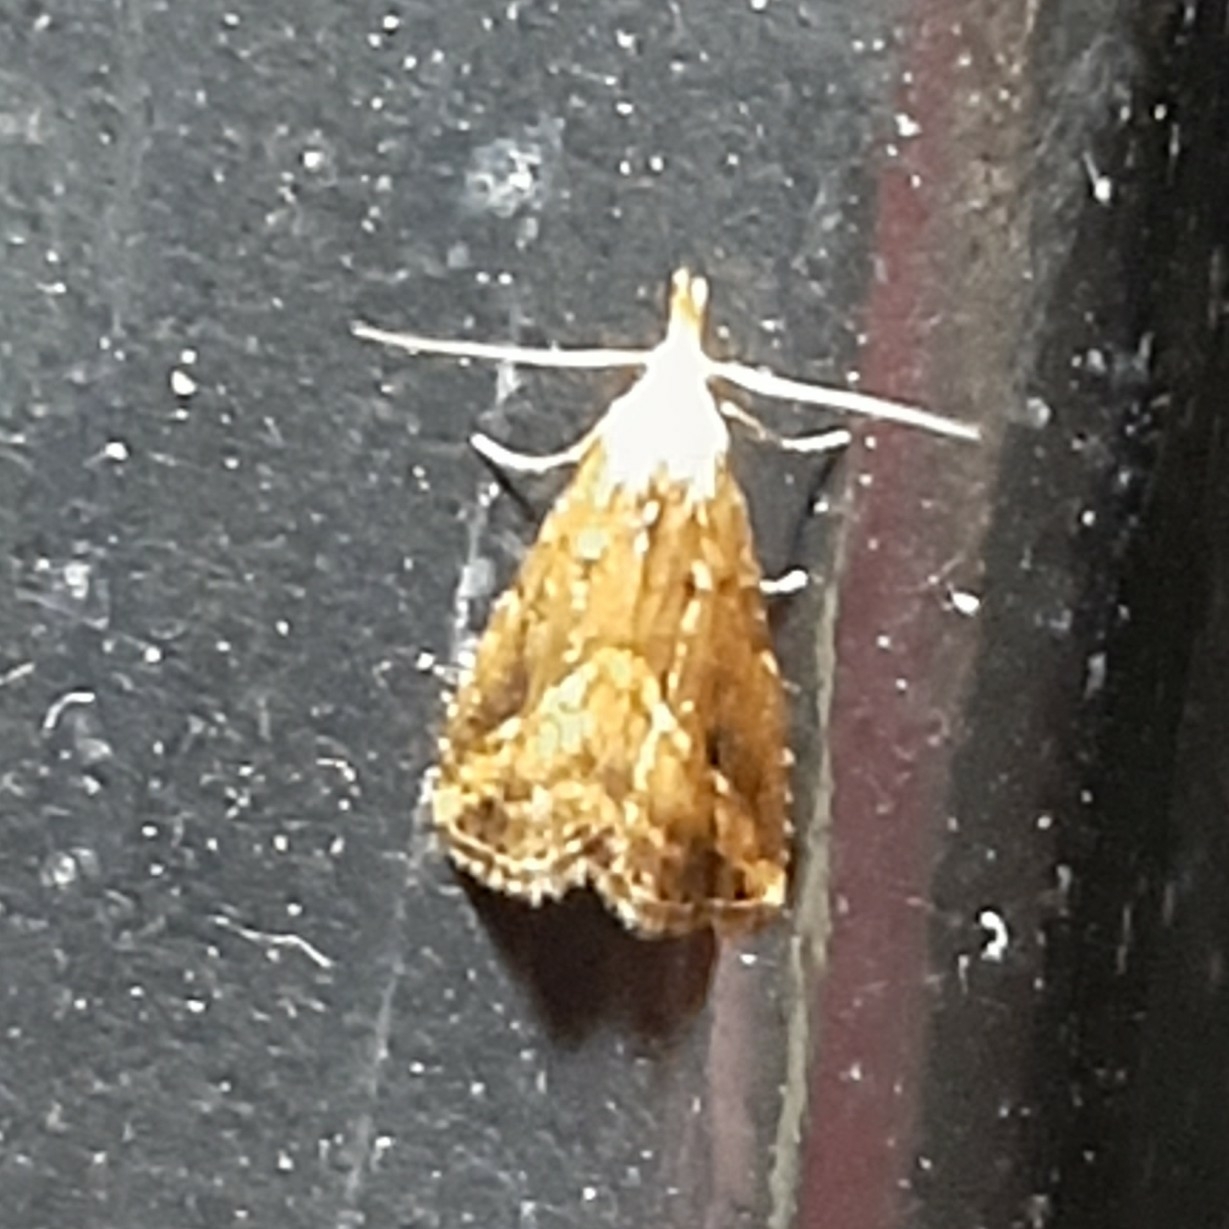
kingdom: Animalia
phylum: Arthropoda
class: Insecta
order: Lepidoptera
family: Erebidae
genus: Schrankia
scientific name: Schrankia
